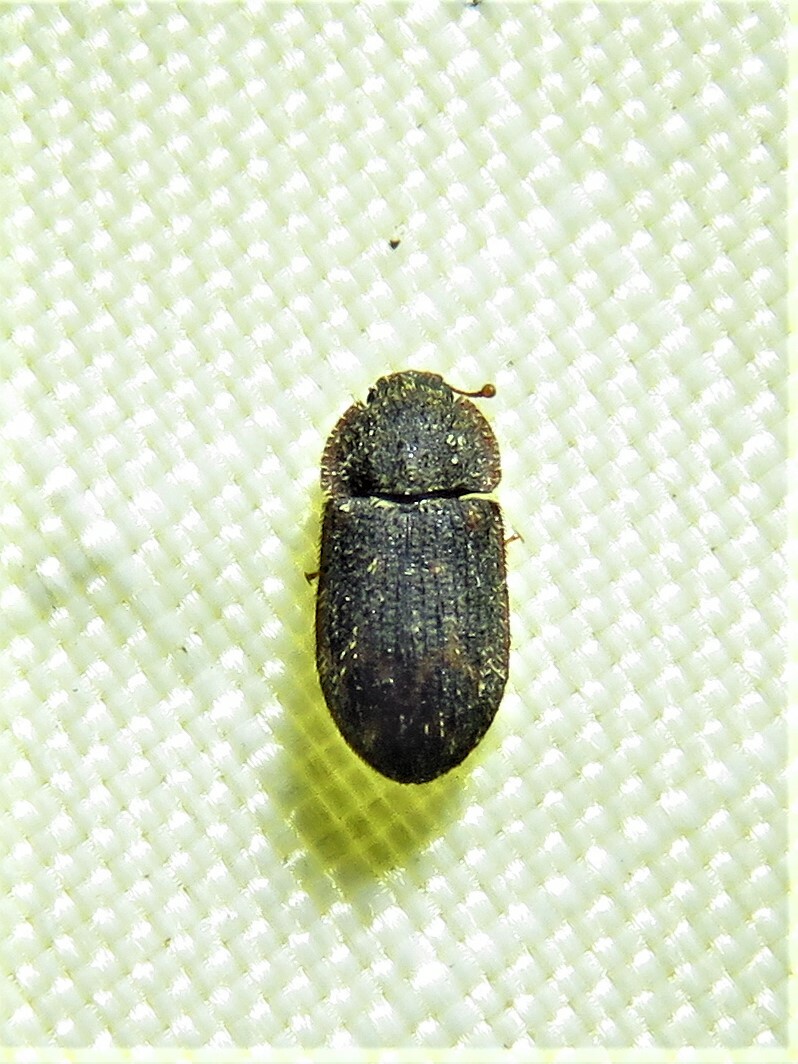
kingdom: Animalia
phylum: Arthropoda
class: Insecta
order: Coleoptera
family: Zopheridae
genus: Eucicones
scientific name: Eucicones marginalis
